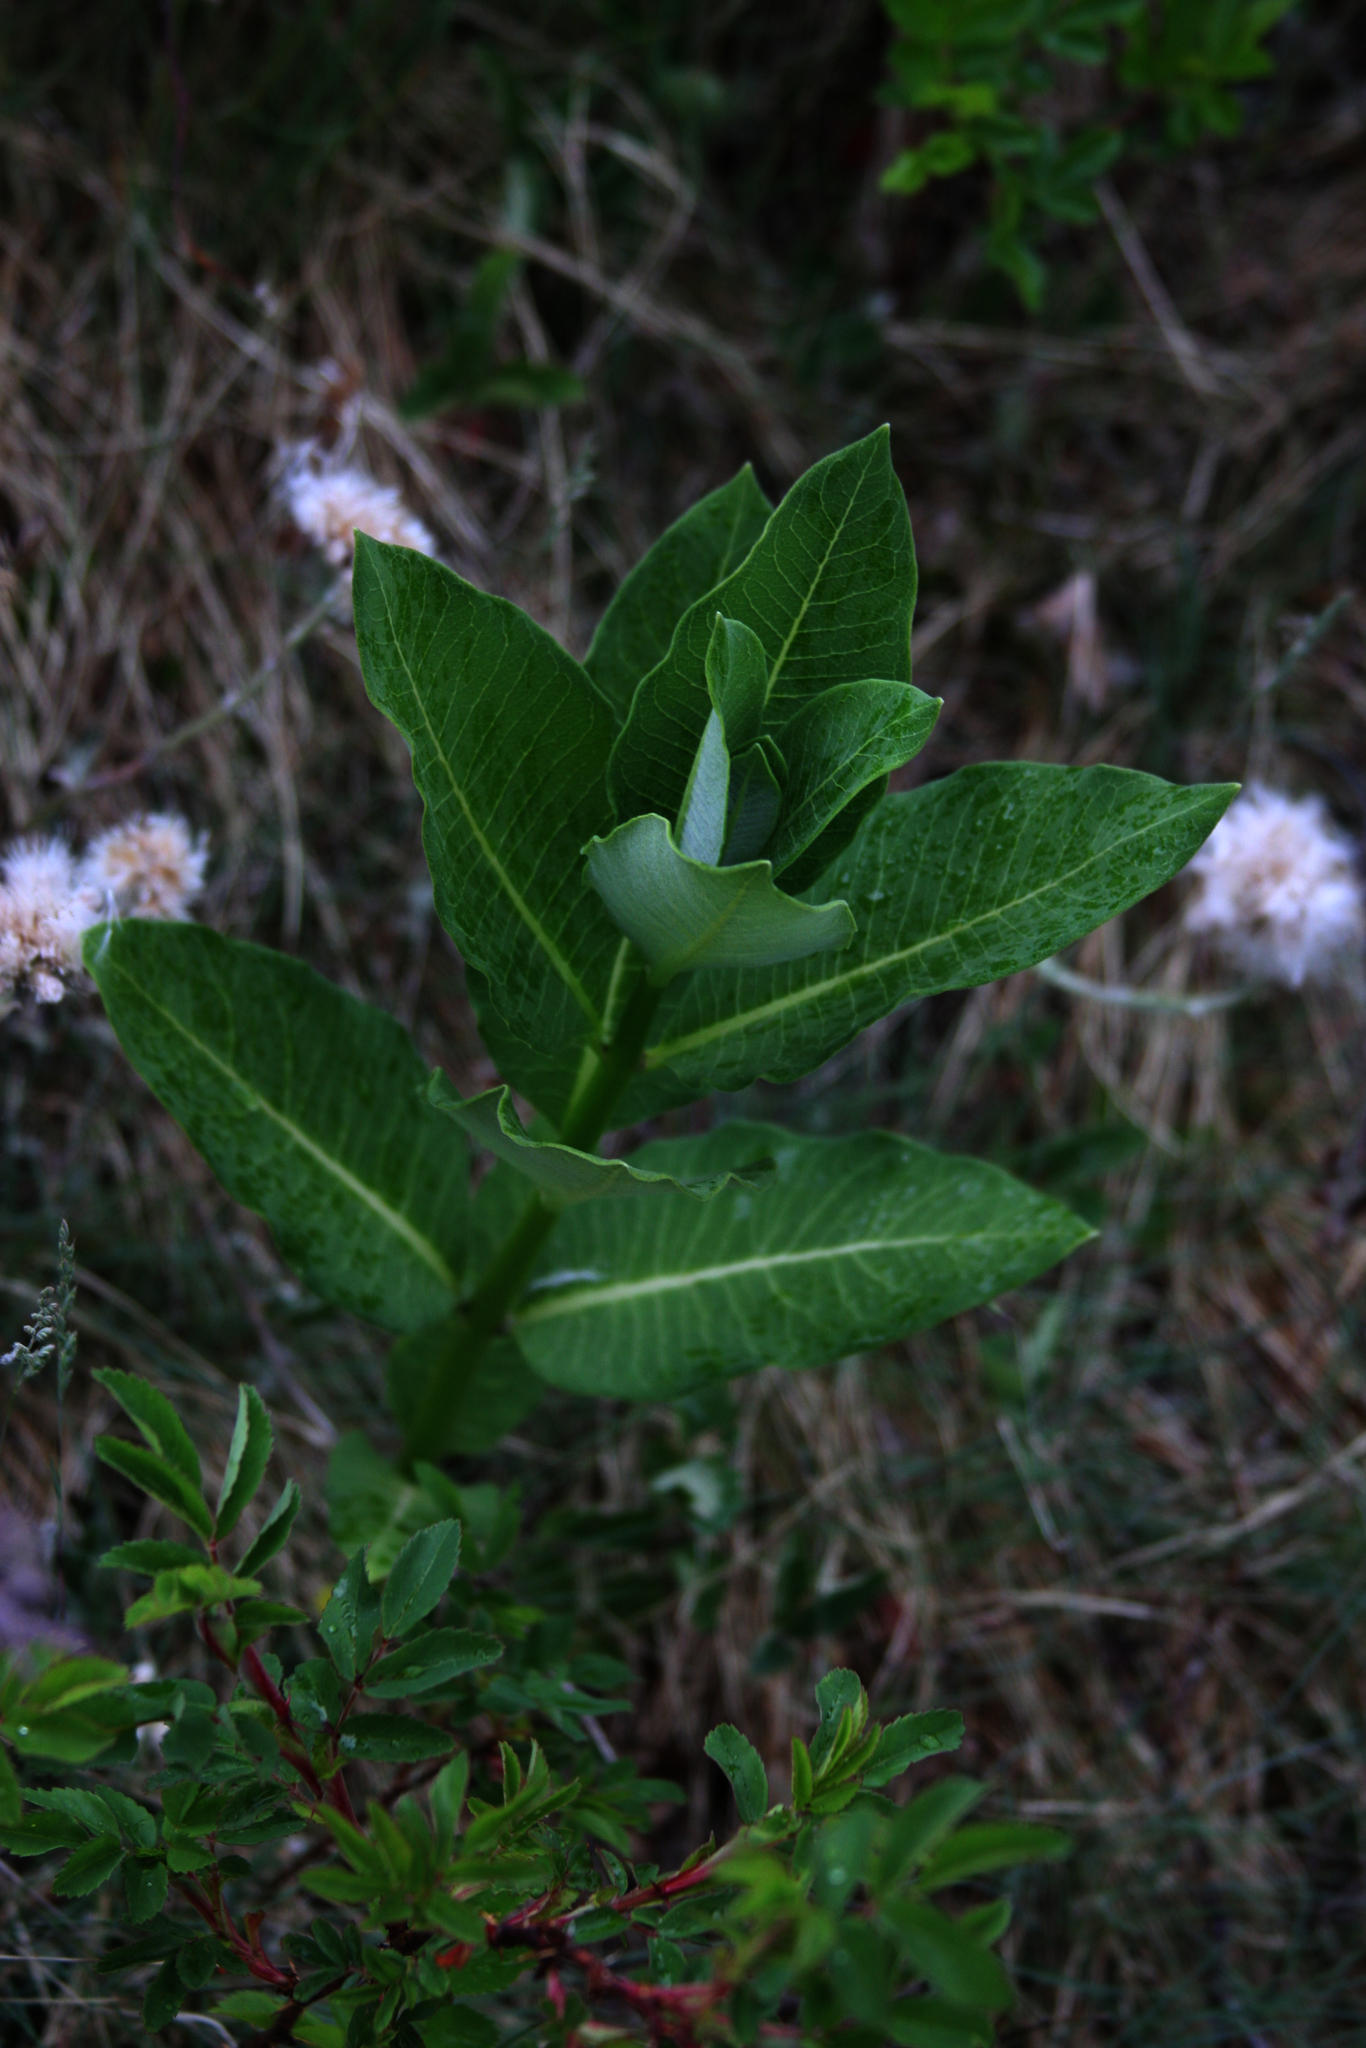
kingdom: Plantae
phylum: Tracheophyta
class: Magnoliopsida
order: Gentianales
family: Apocynaceae
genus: Asclepias
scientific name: Asclepias syriaca
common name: Common milkweed
